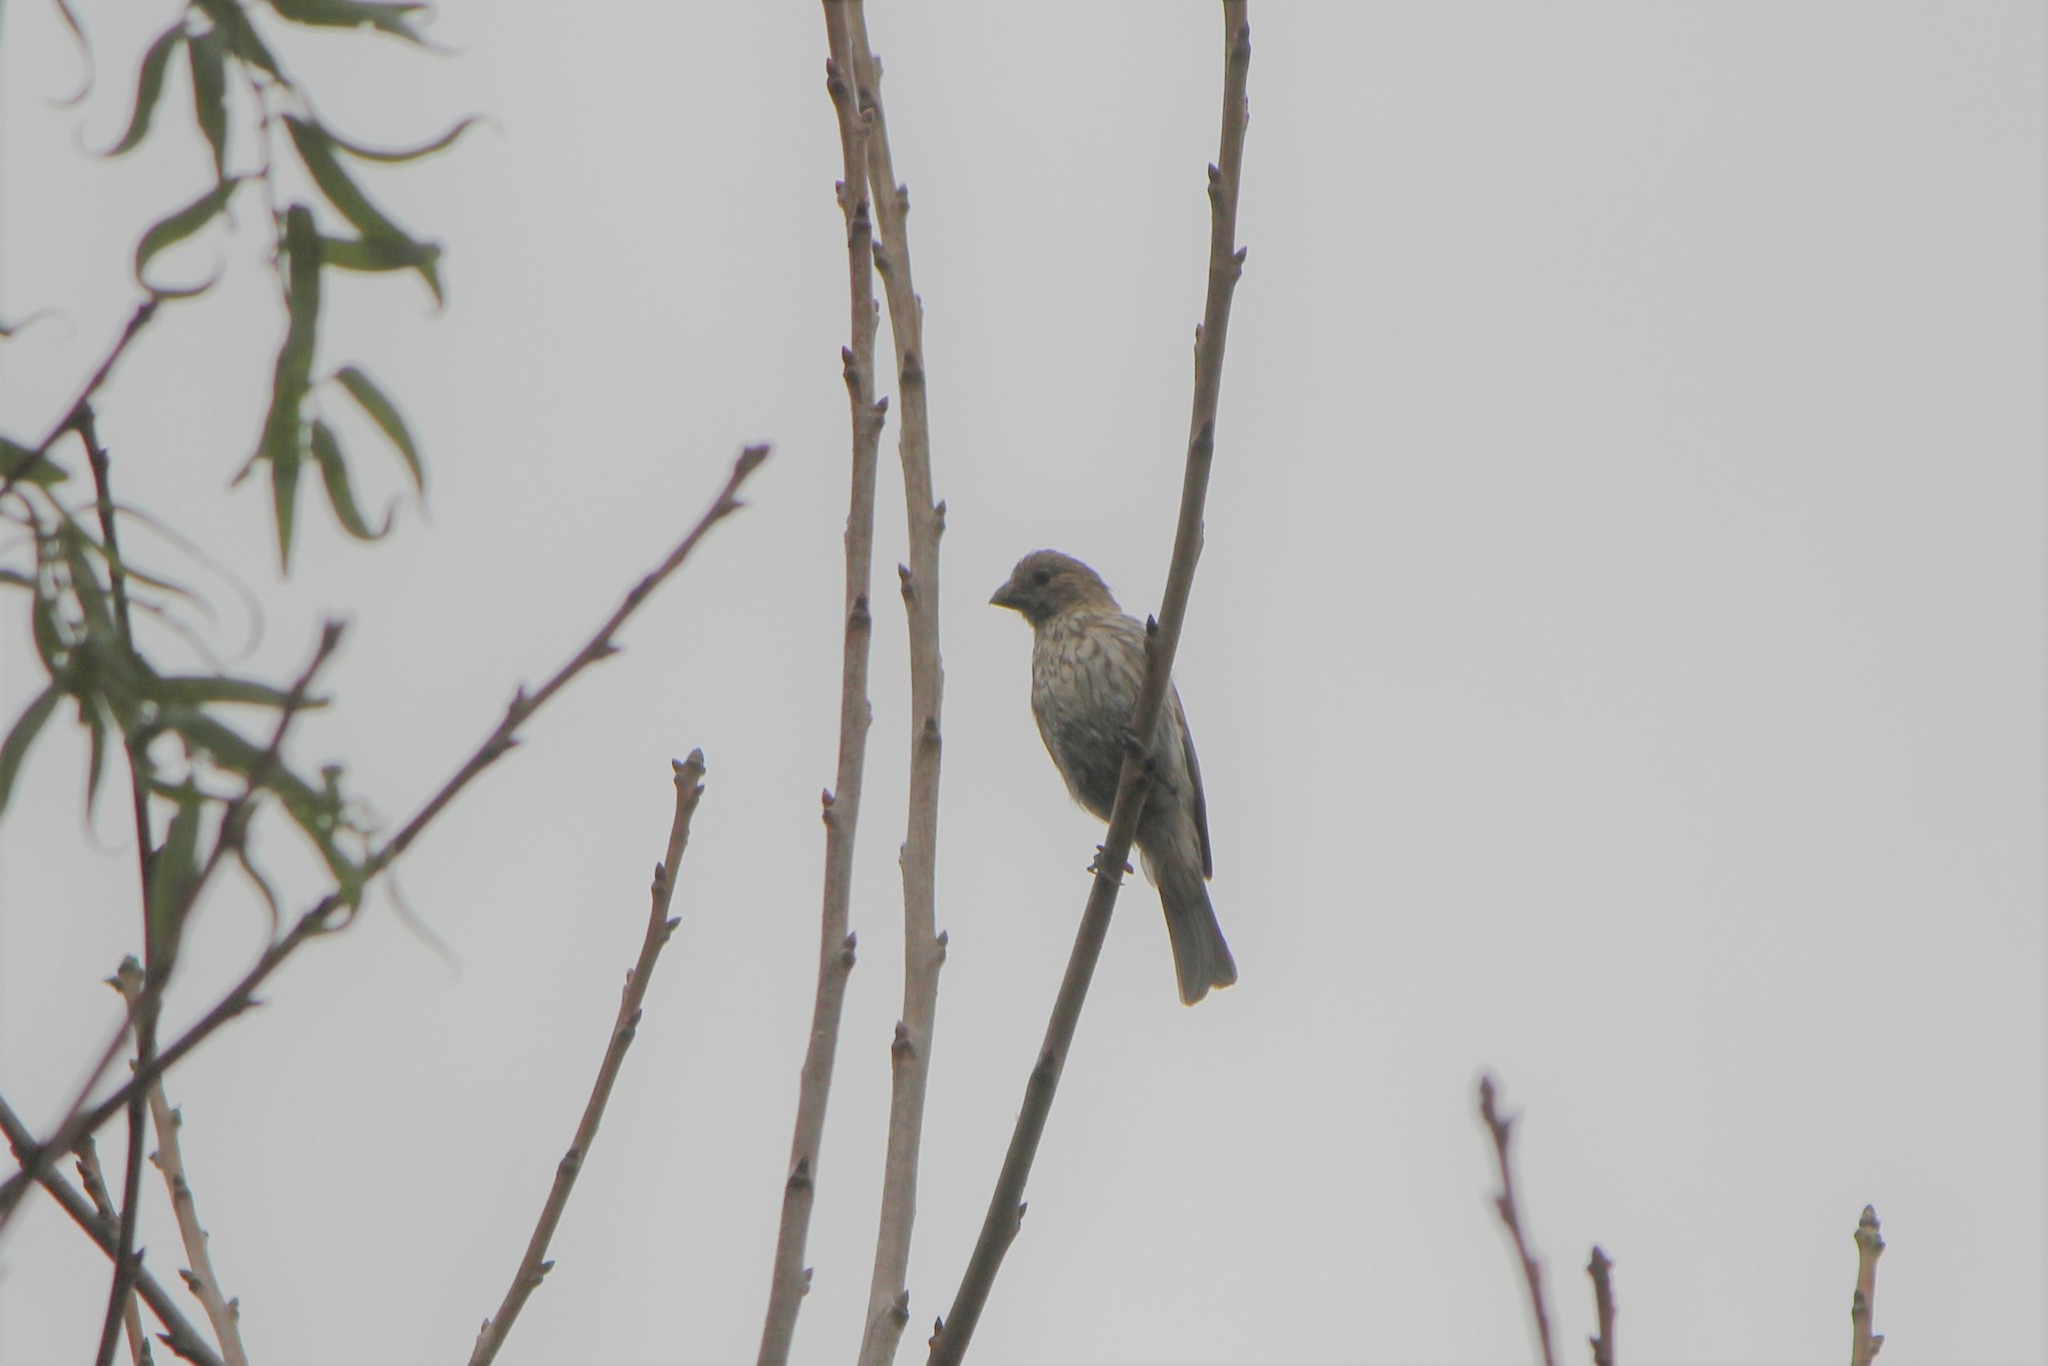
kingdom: Animalia
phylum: Chordata
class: Aves
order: Passeriformes
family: Fringillidae
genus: Haemorhous
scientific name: Haemorhous mexicanus
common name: House finch
